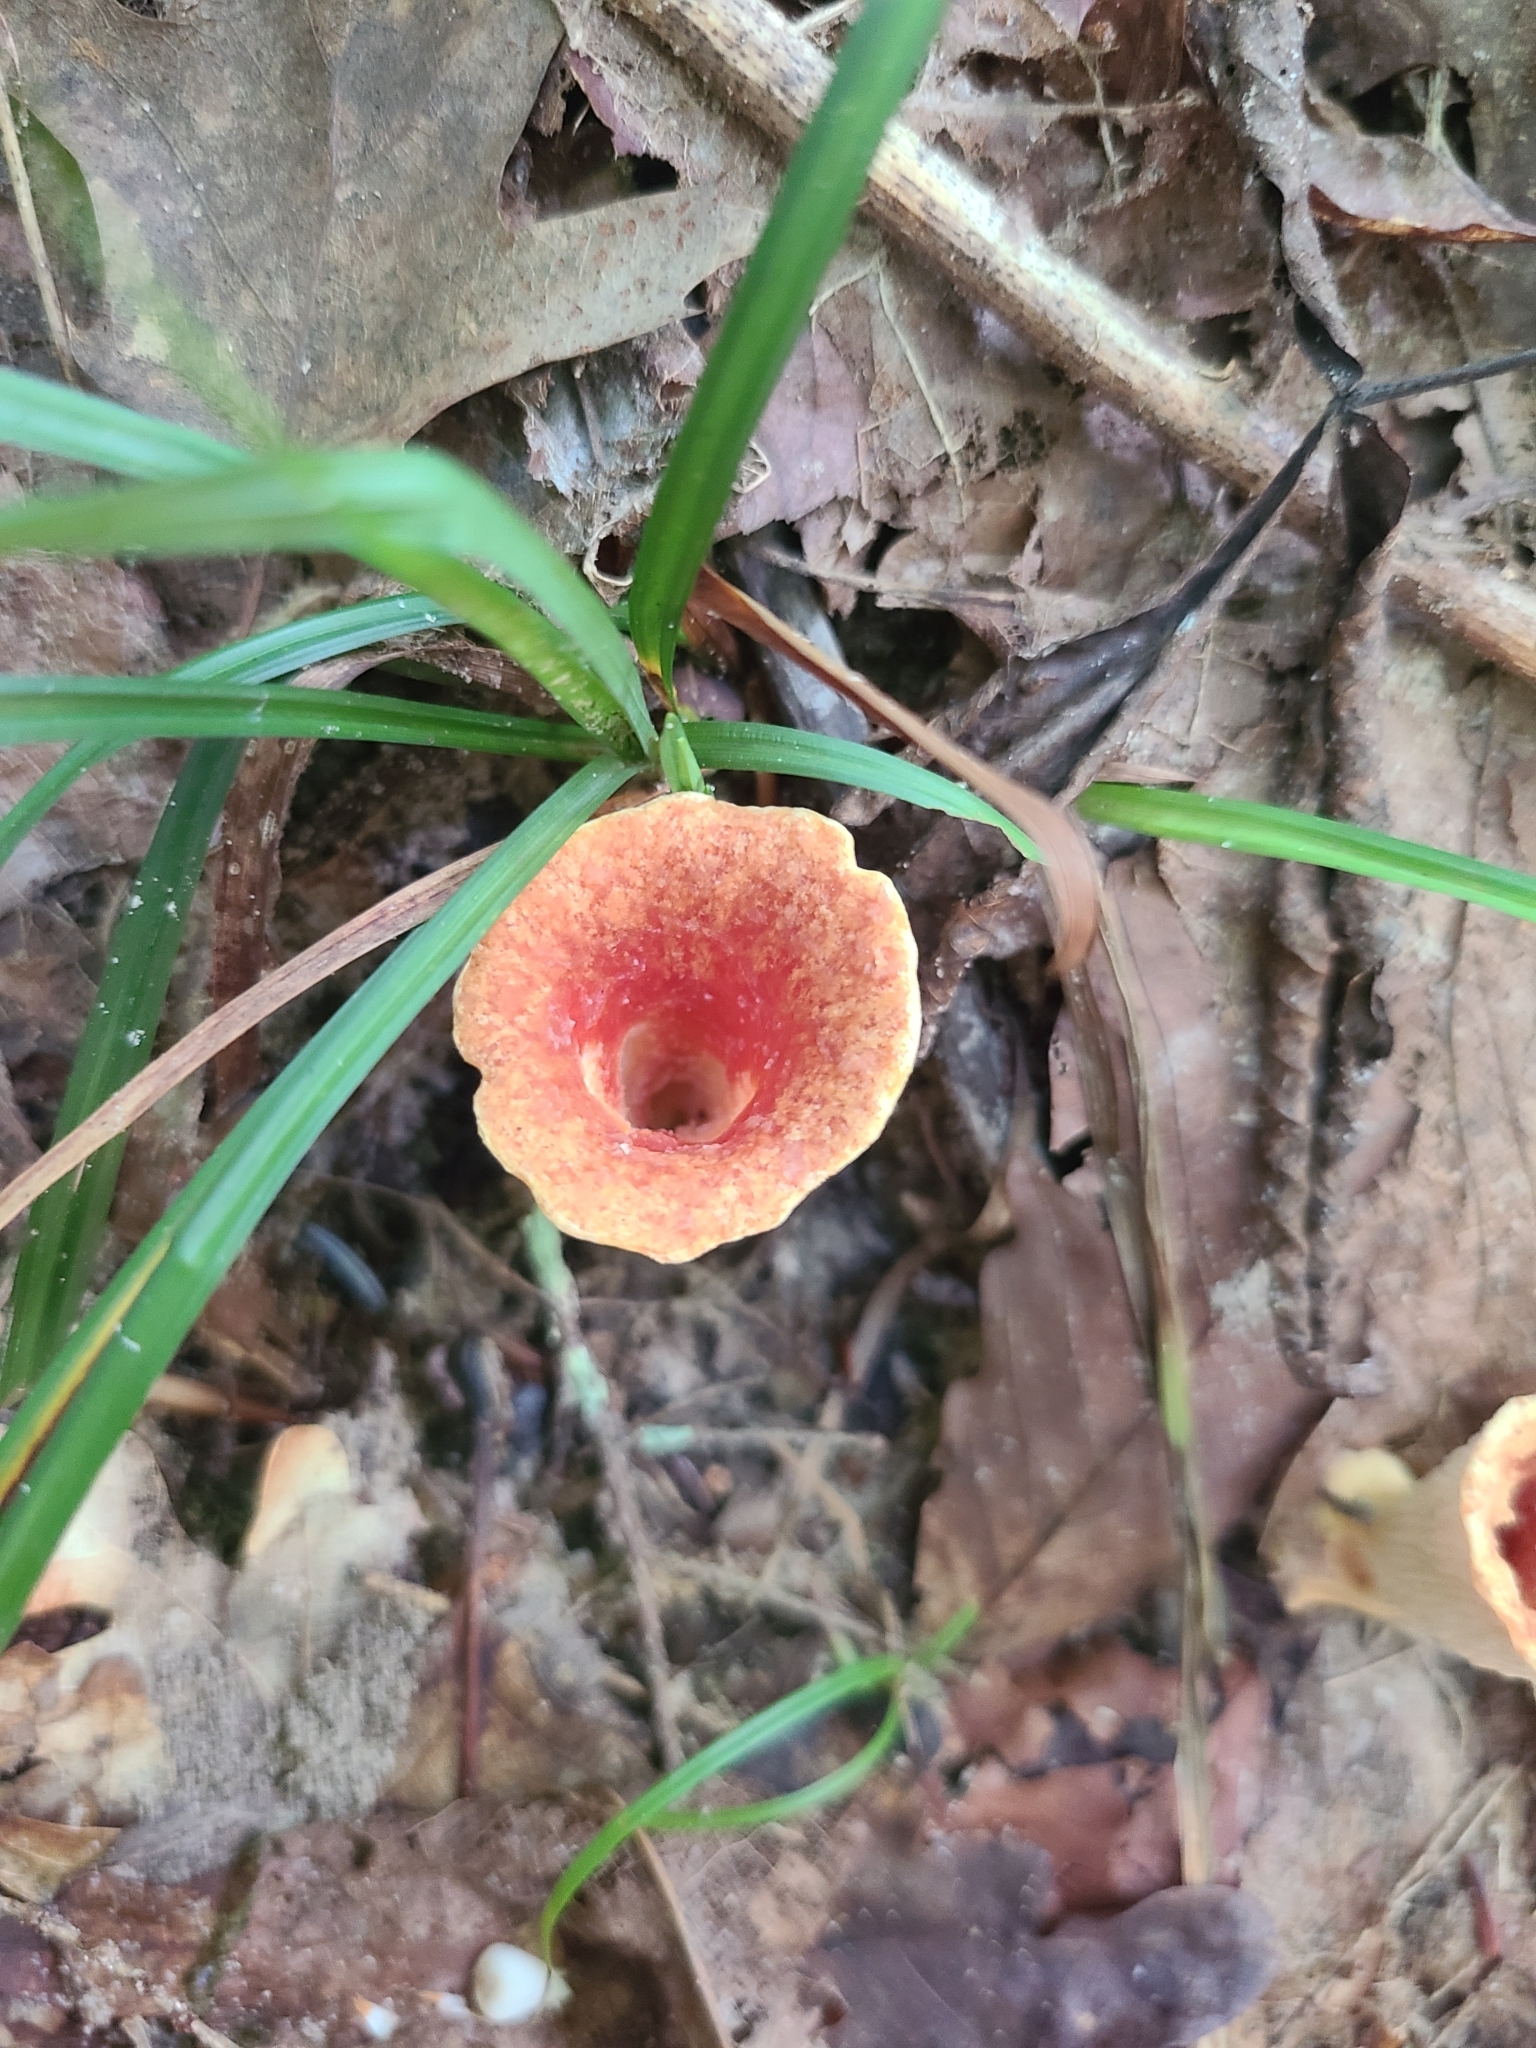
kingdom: Fungi
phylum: Basidiomycota
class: Agaricomycetes
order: Gomphales
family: Gomphaceae
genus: Turbinellus
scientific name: Turbinellus floccosus
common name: Scaly chanterelle
